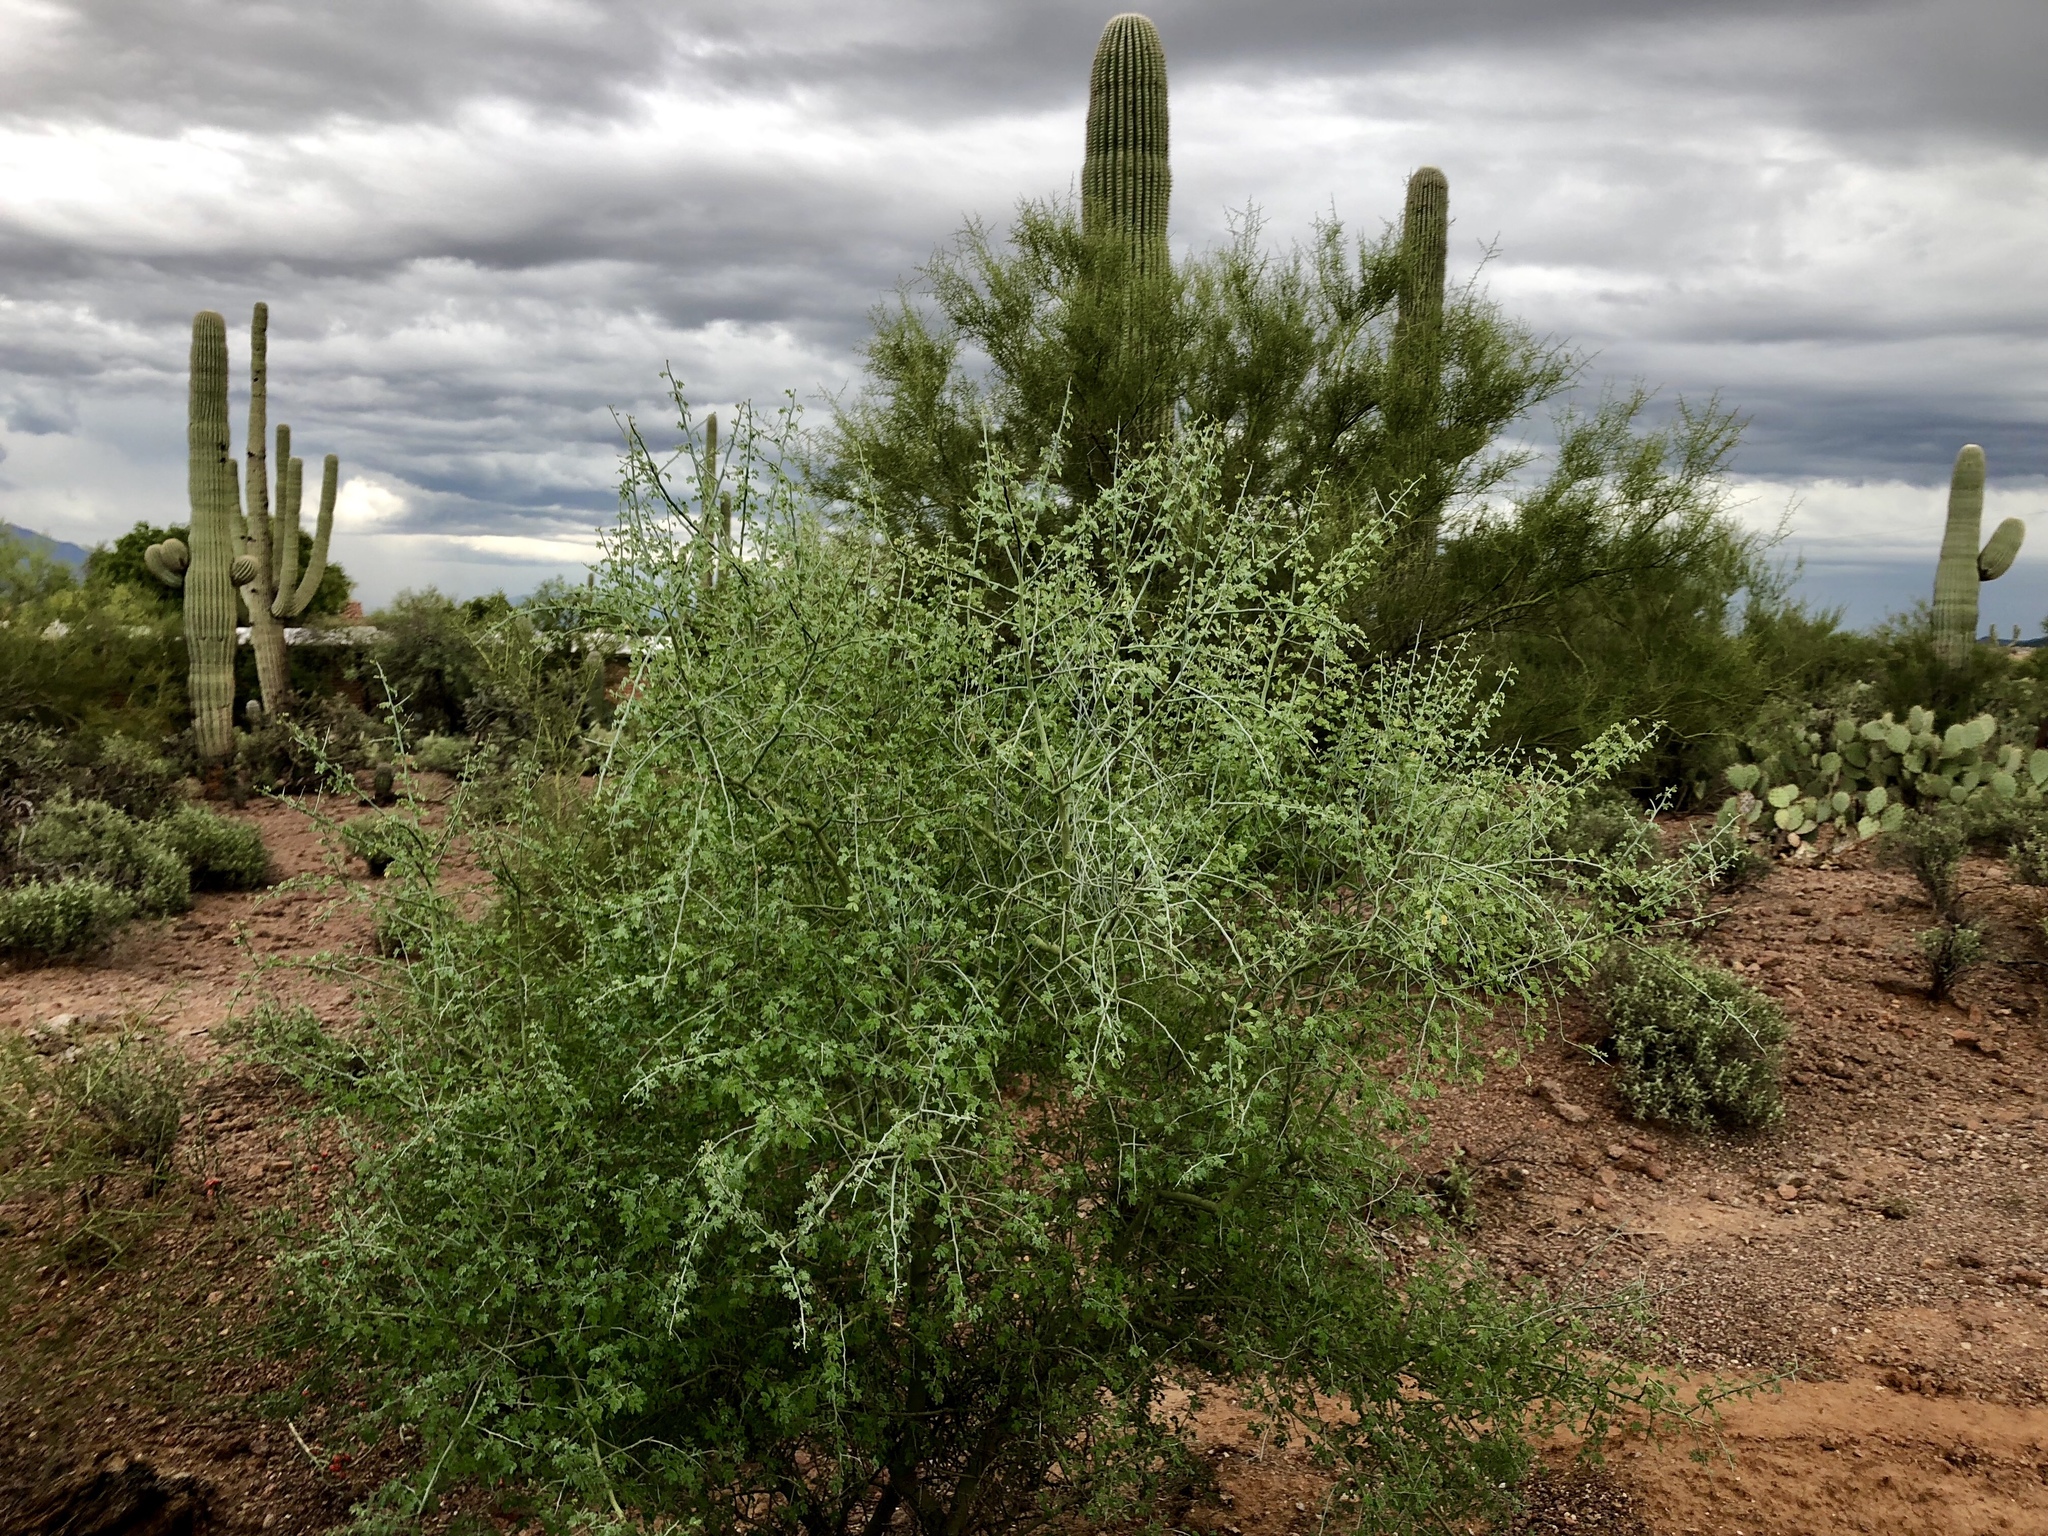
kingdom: Plantae
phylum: Tracheophyta
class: Magnoliopsida
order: Rosales
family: Cannabaceae
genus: Celtis
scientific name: Celtis pallida
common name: Desert hackberry
